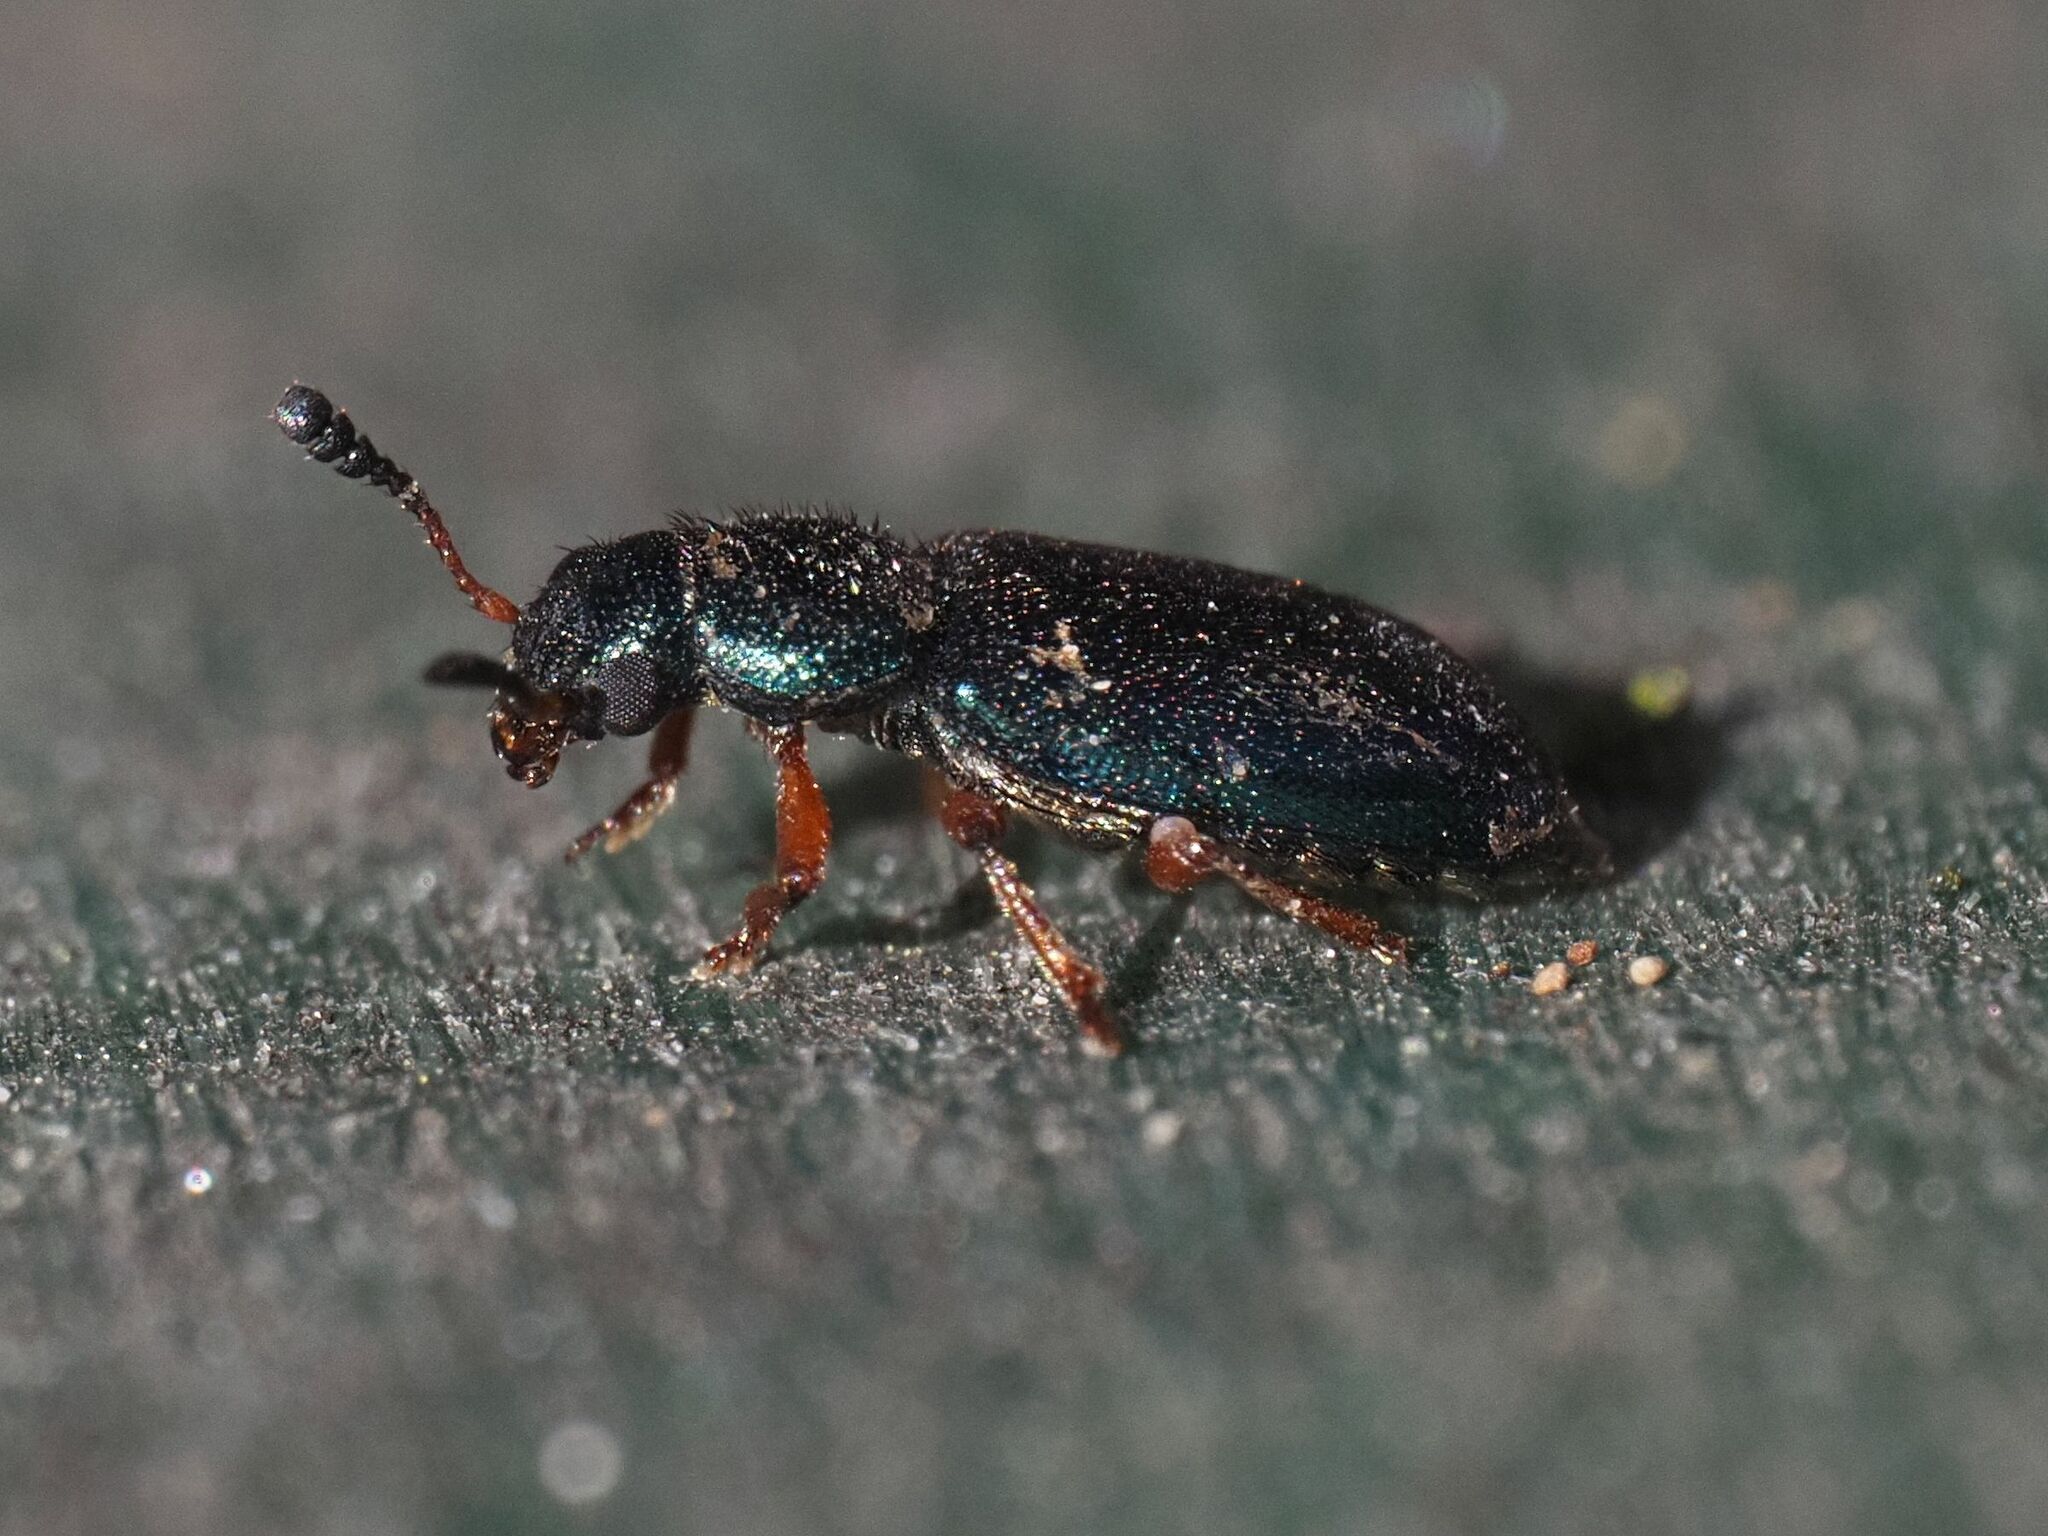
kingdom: Animalia
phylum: Arthropoda
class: Insecta
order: Coleoptera
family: Cleridae
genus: Necrobia
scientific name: Necrobia rufipes
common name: Red-legged ham beetle
